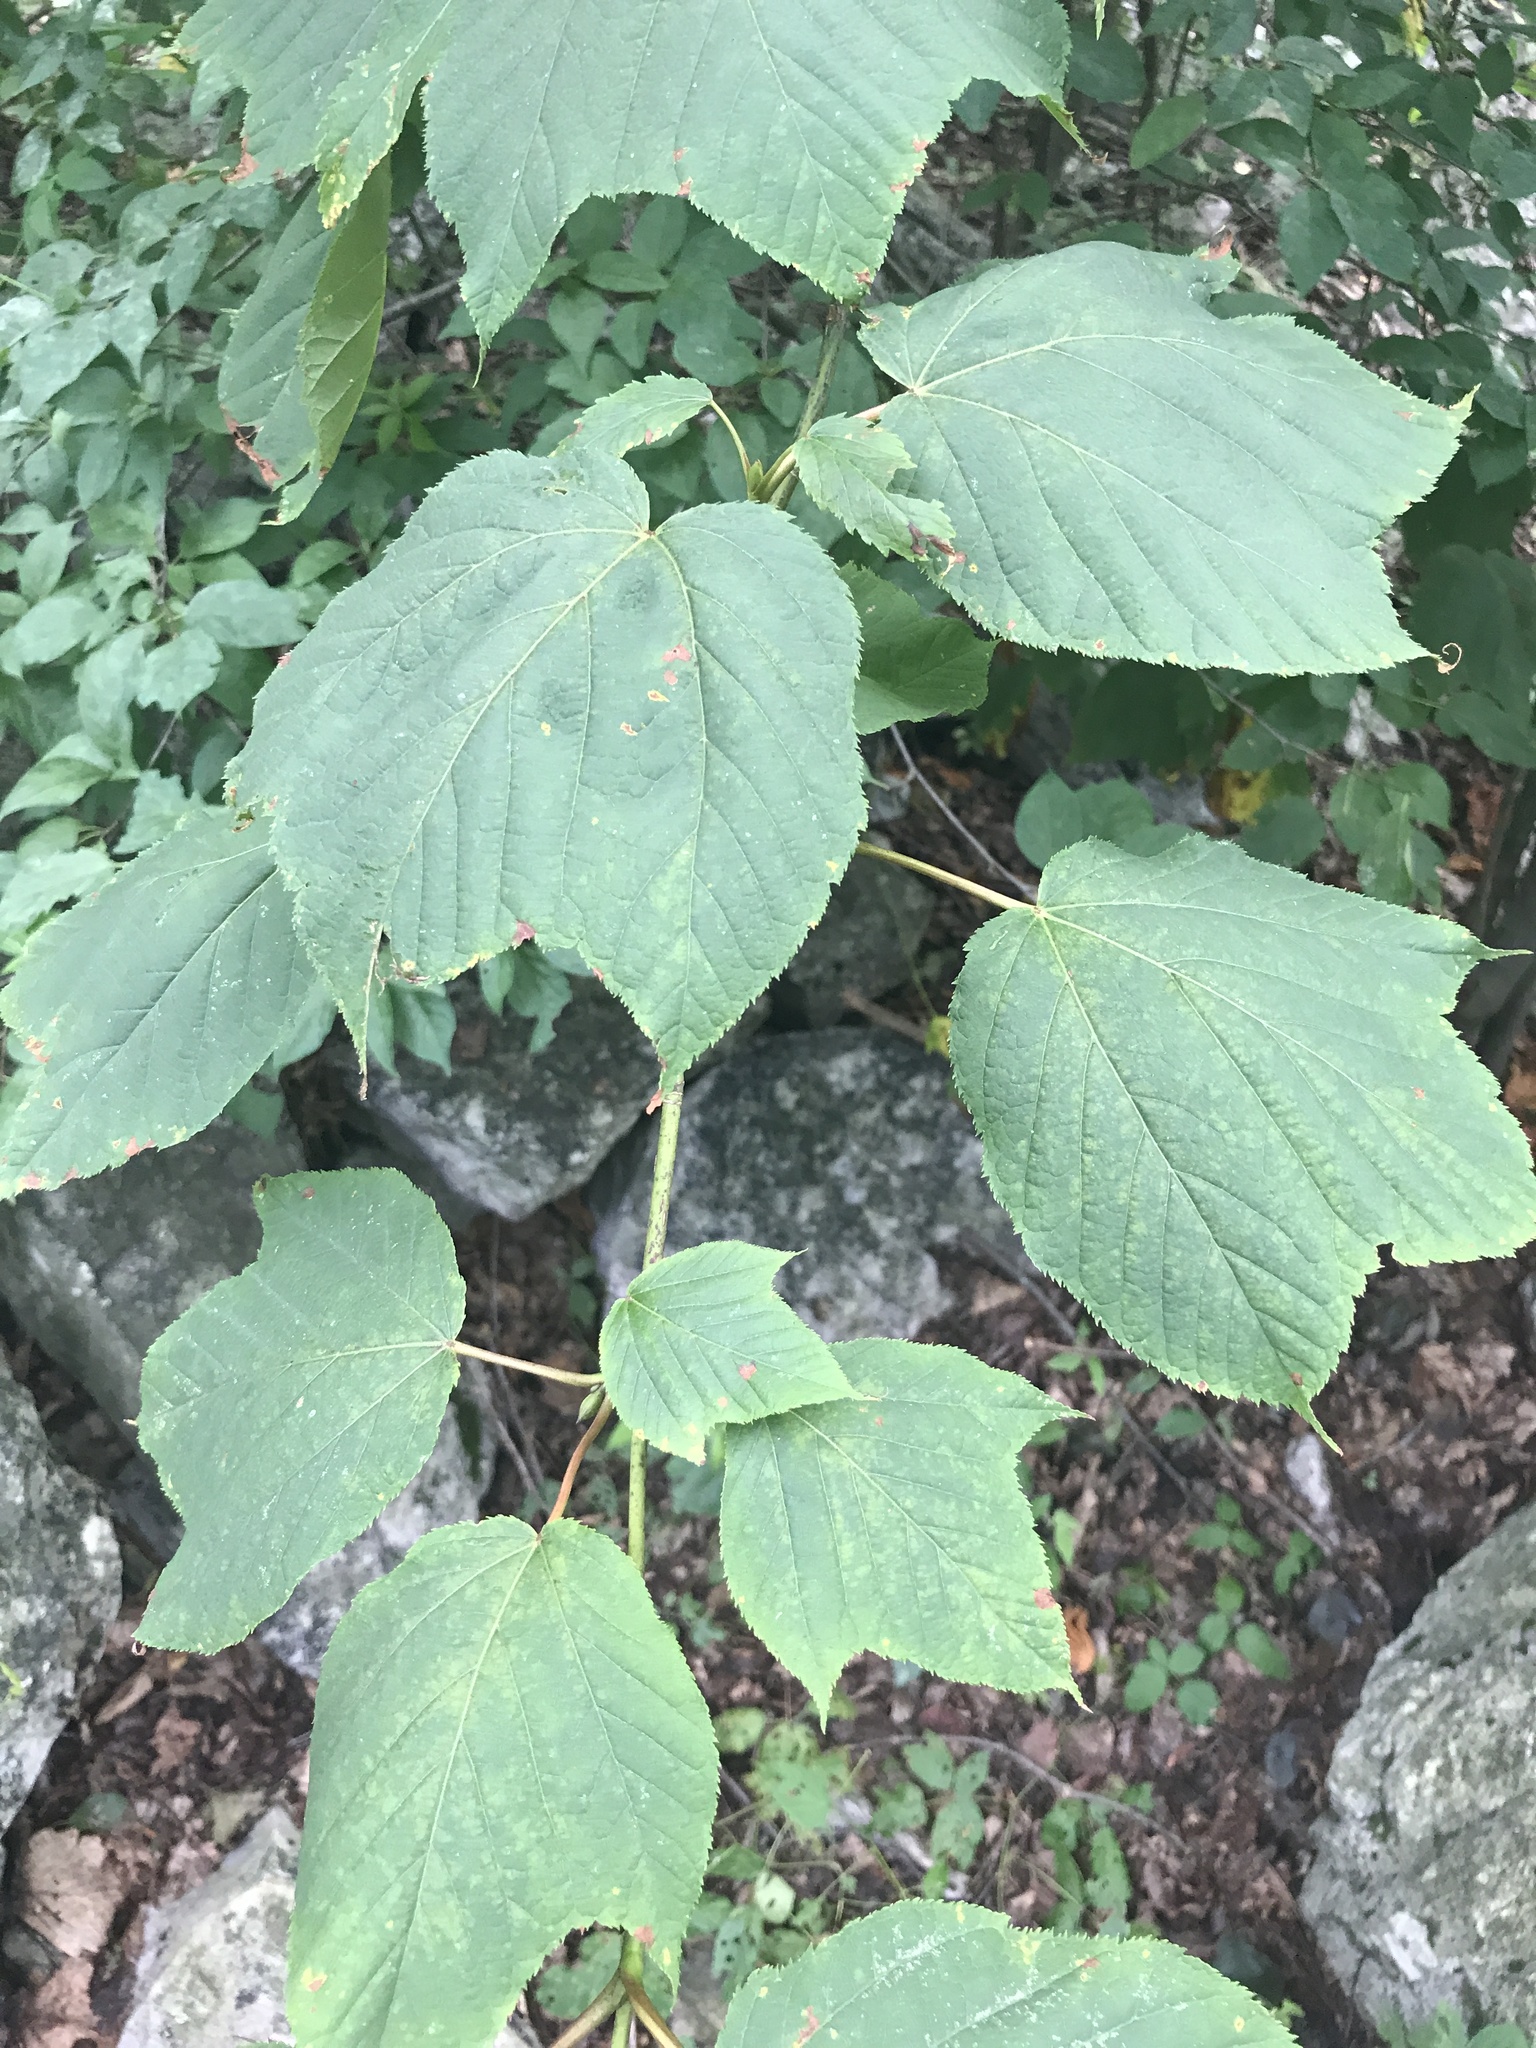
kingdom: Plantae
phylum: Tracheophyta
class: Magnoliopsida
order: Sapindales
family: Sapindaceae
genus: Acer
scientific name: Acer pensylvanicum
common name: Moosewood
